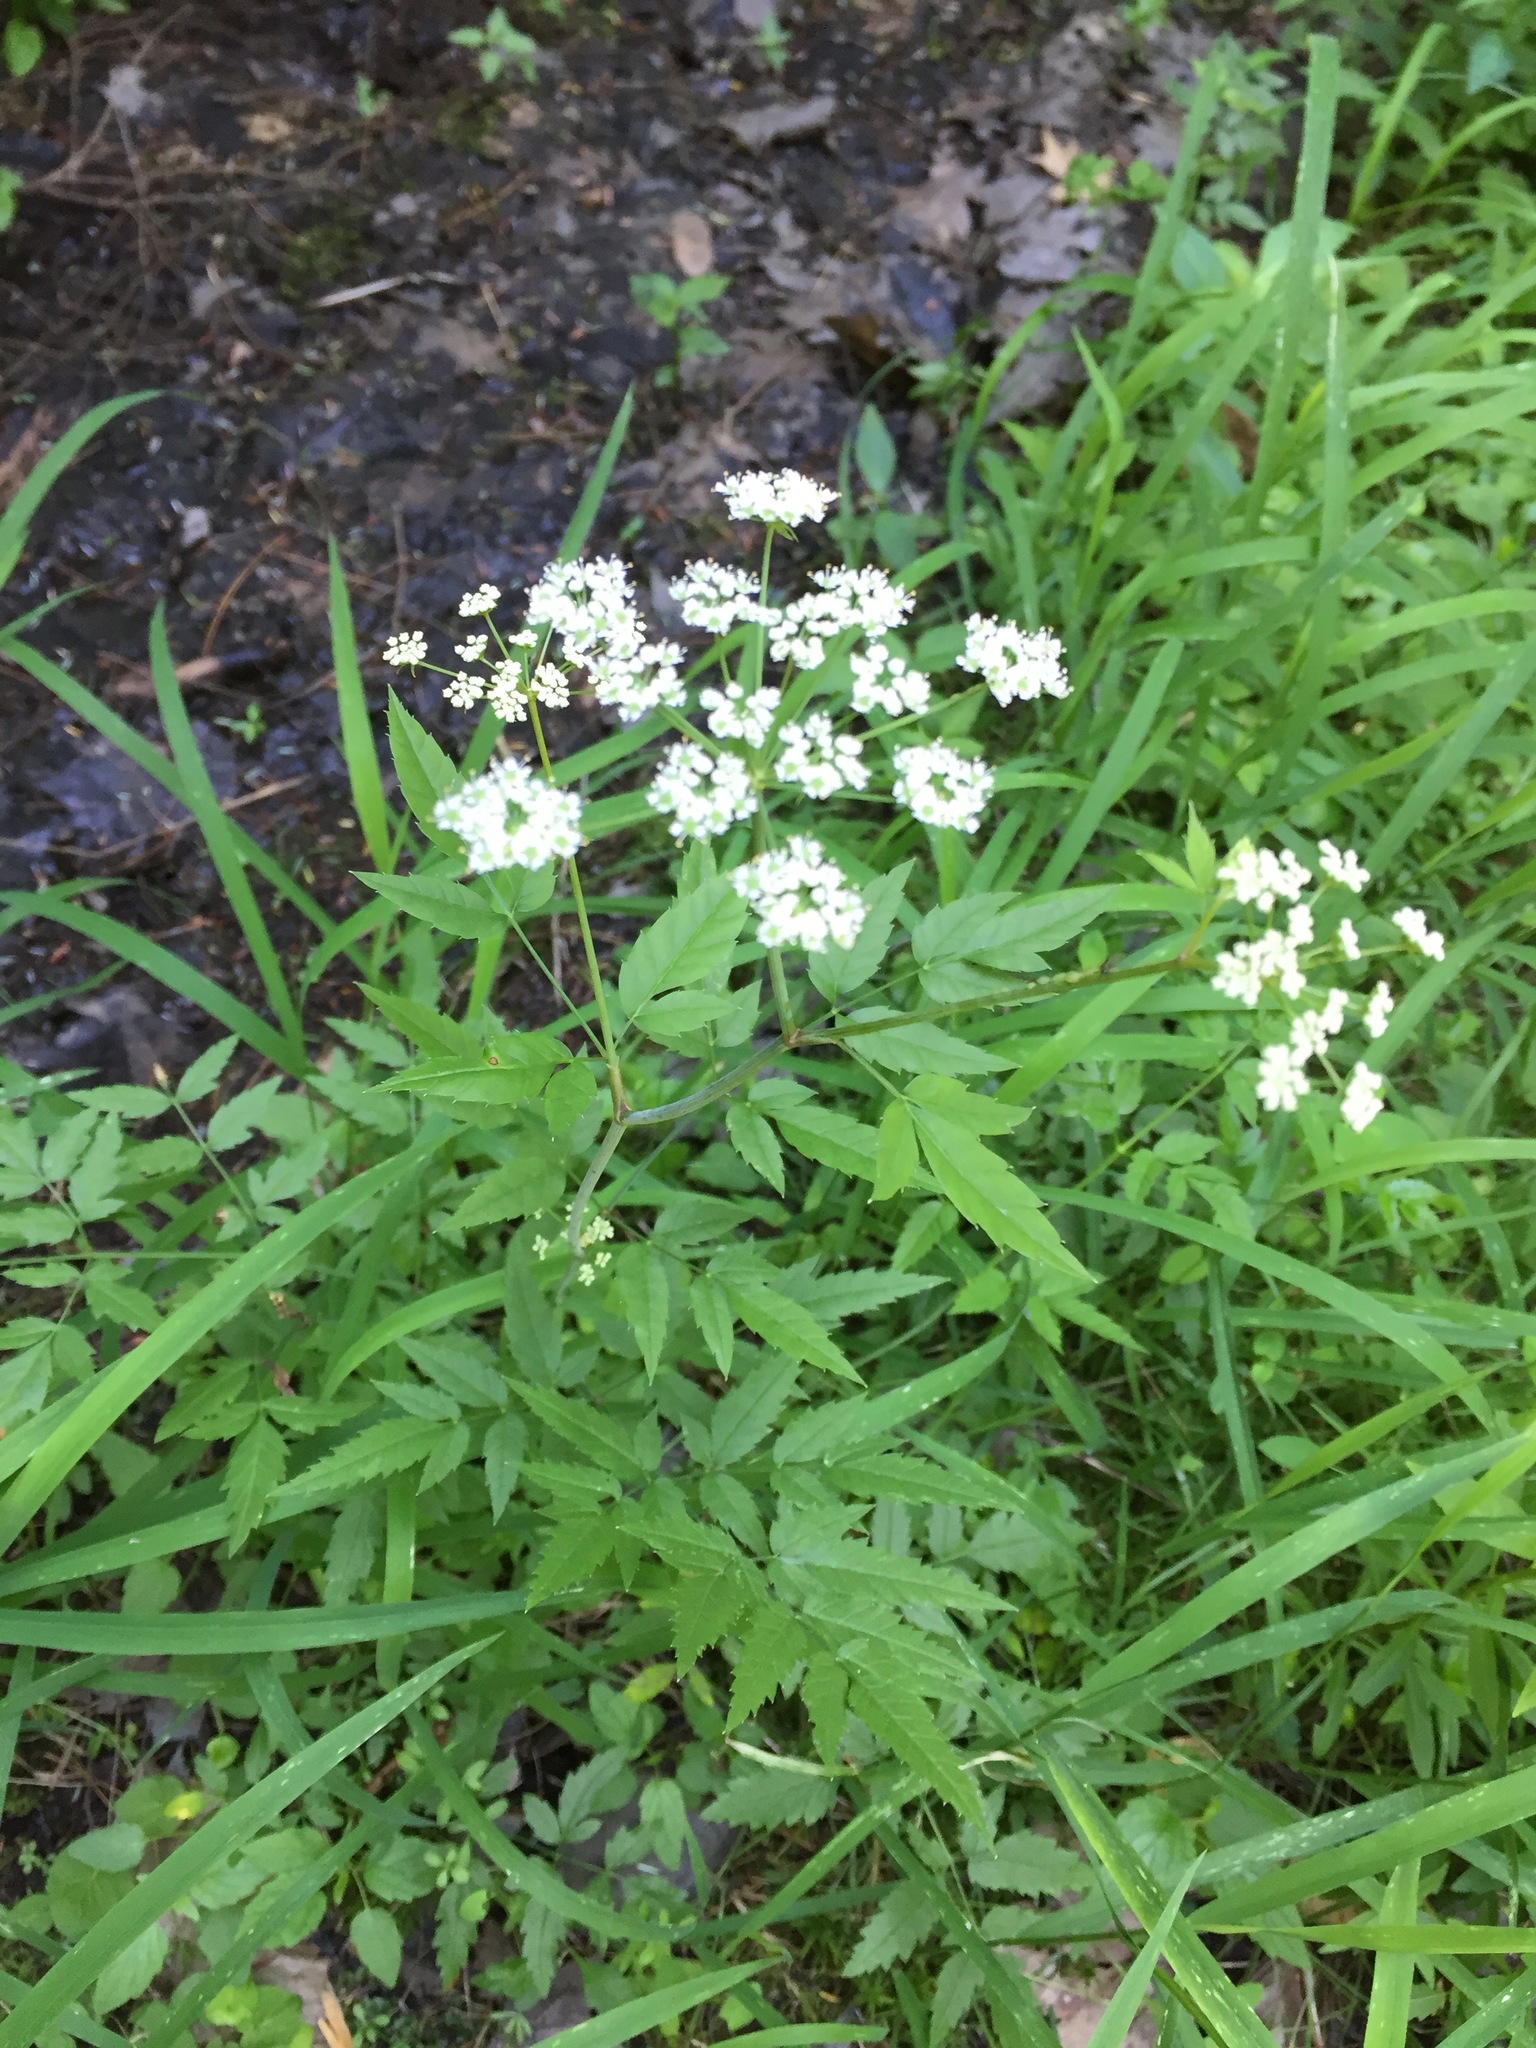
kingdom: Plantae
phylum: Tracheophyta
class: Magnoliopsida
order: Apiales
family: Apiaceae
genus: Cicuta
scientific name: Cicuta maculata
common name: Spotted cowbane
